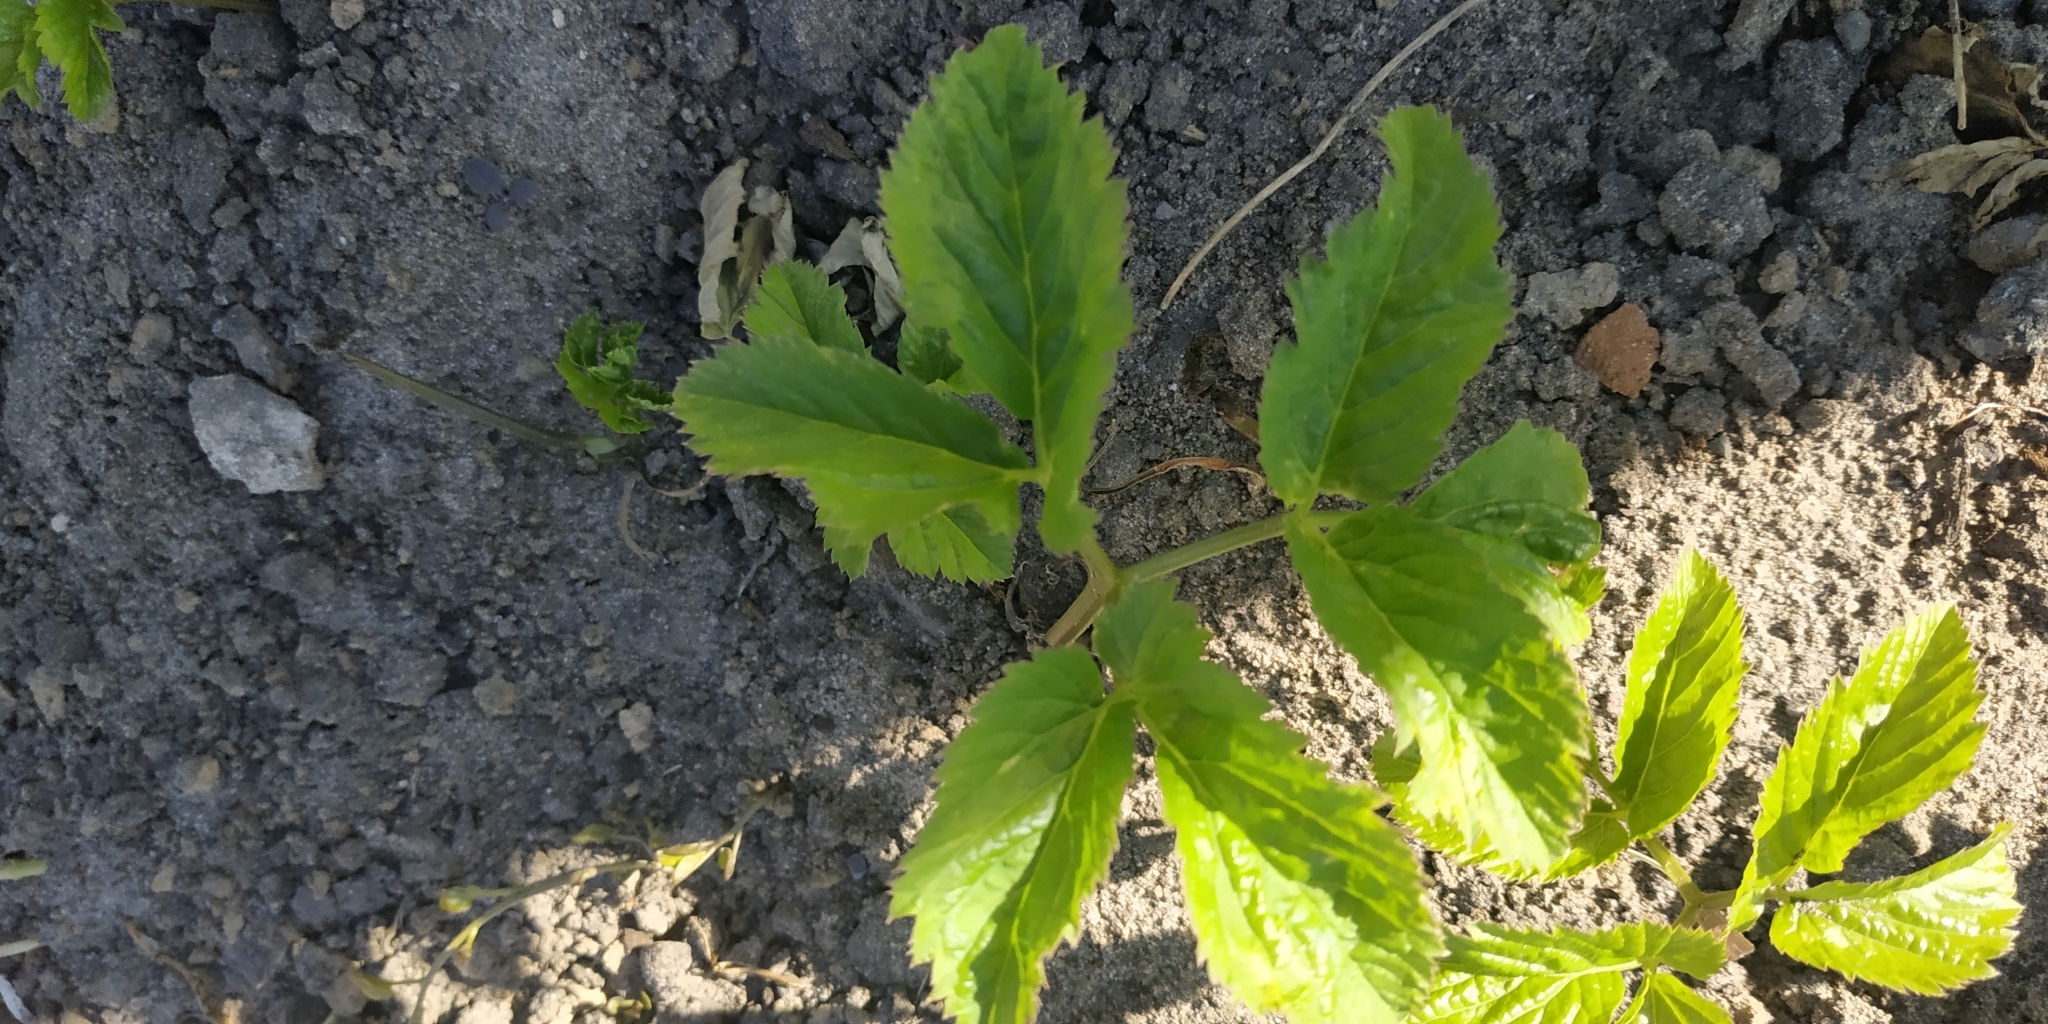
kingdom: Plantae
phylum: Tracheophyta
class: Magnoliopsida
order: Apiales
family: Apiaceae
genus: Aegopodium
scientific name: Aegopodium podagraria
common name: Ground-elder
